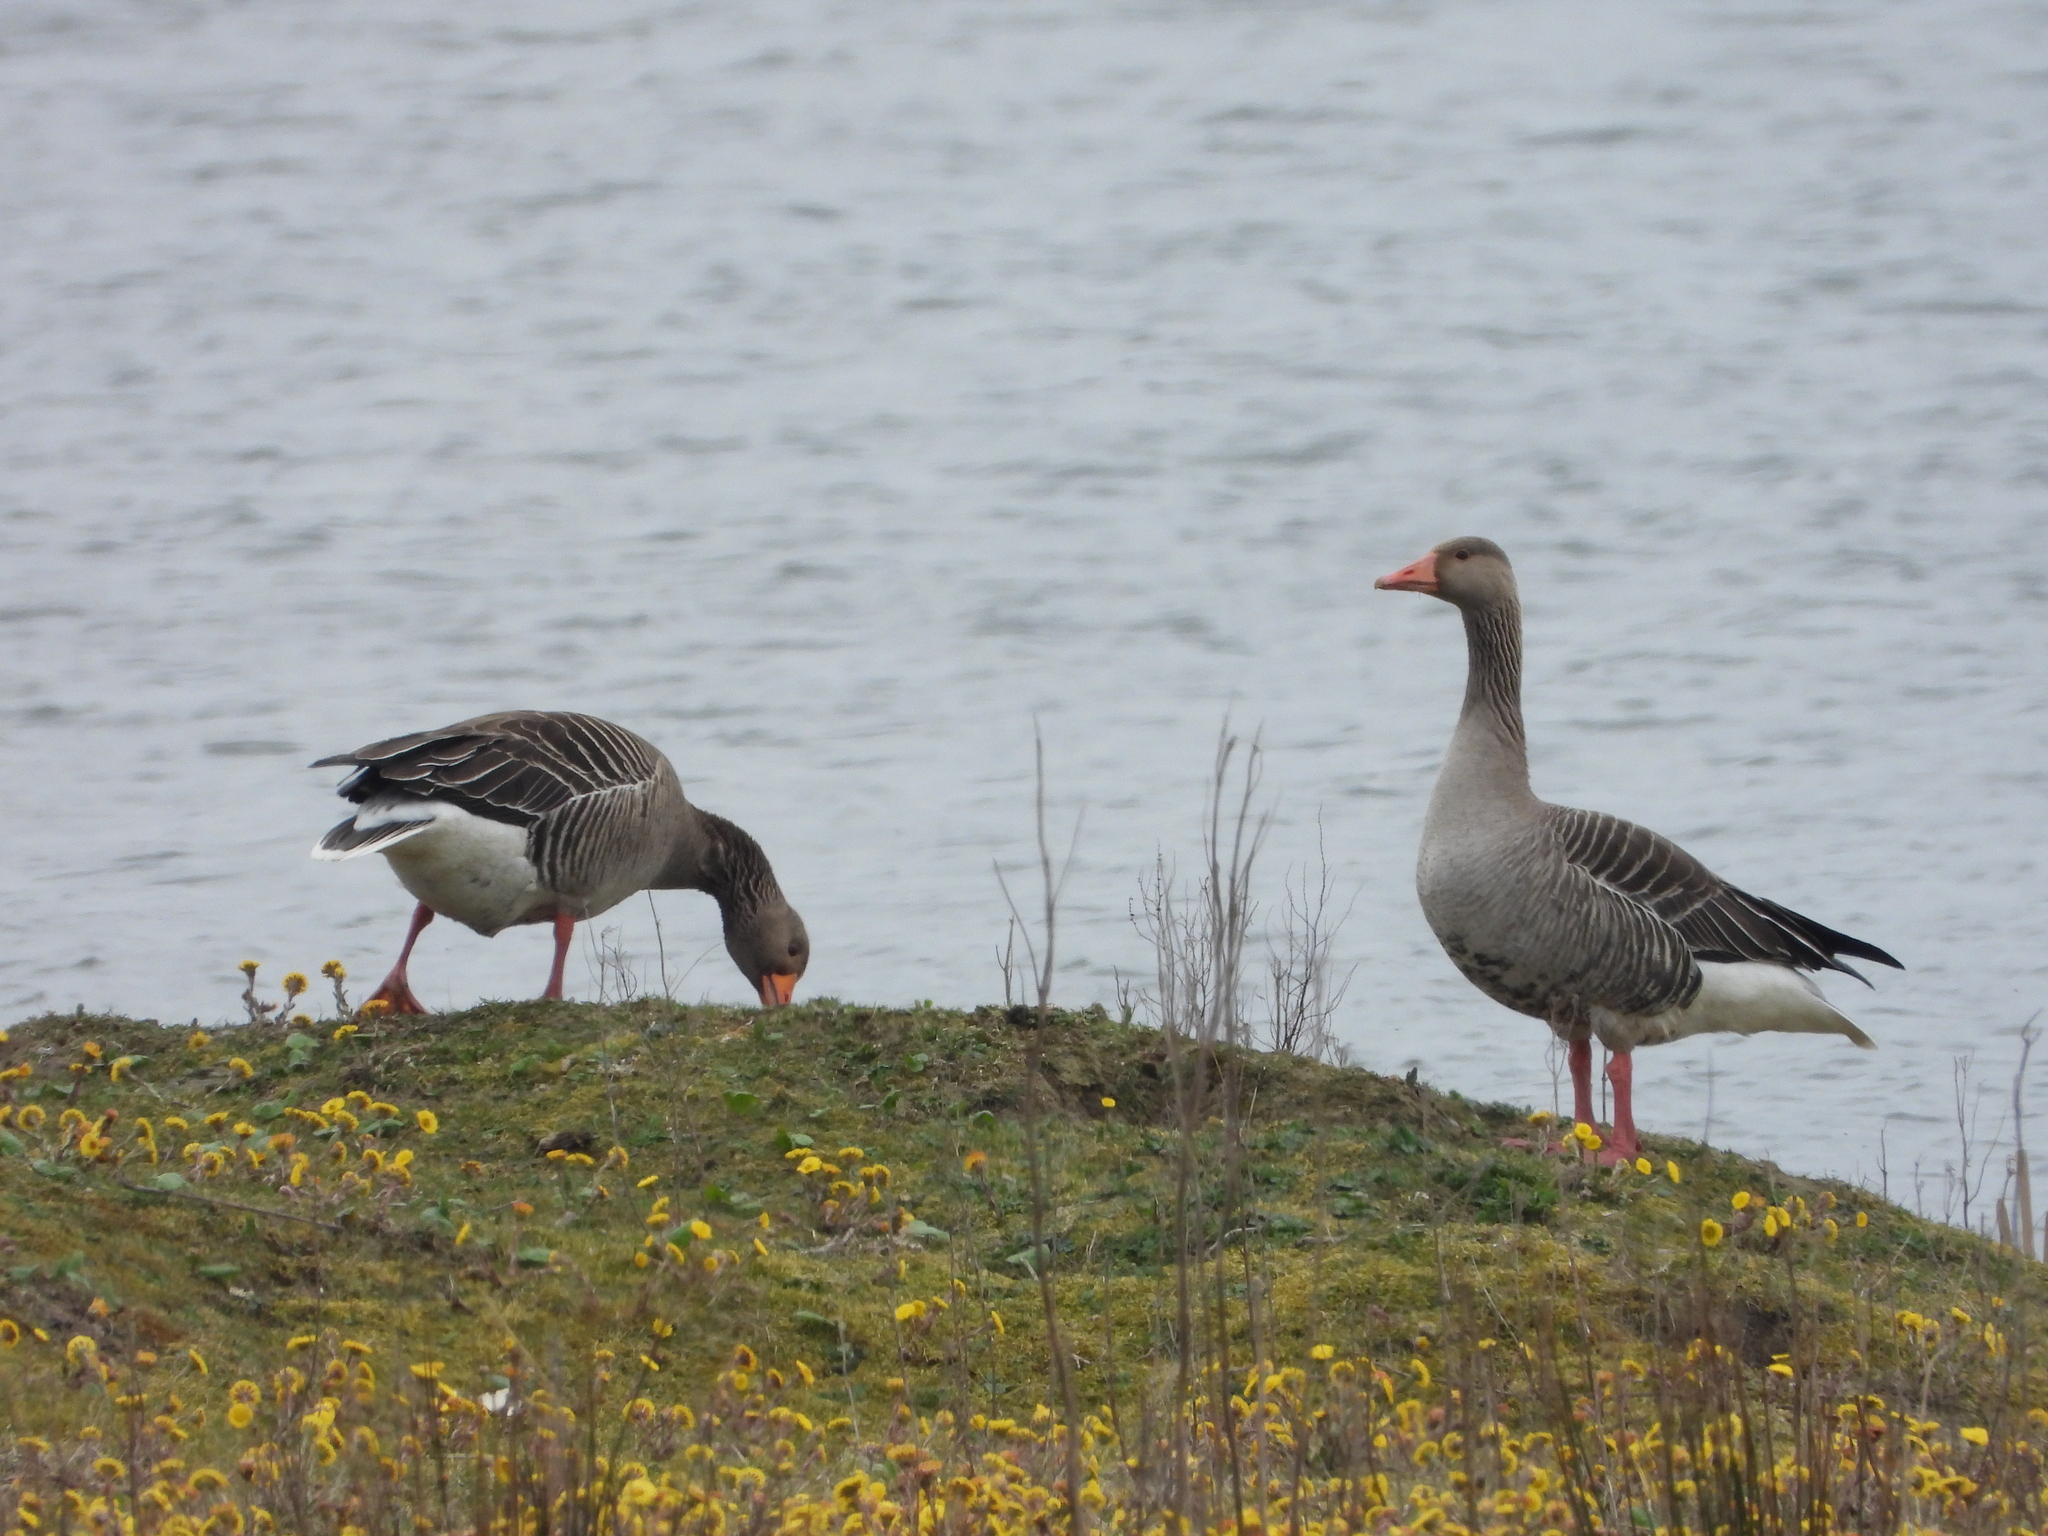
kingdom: Animalia
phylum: Chordata
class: Aves
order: Anseriformes
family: Anatidae
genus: Anser
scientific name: Anser anser
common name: Greylag goose
